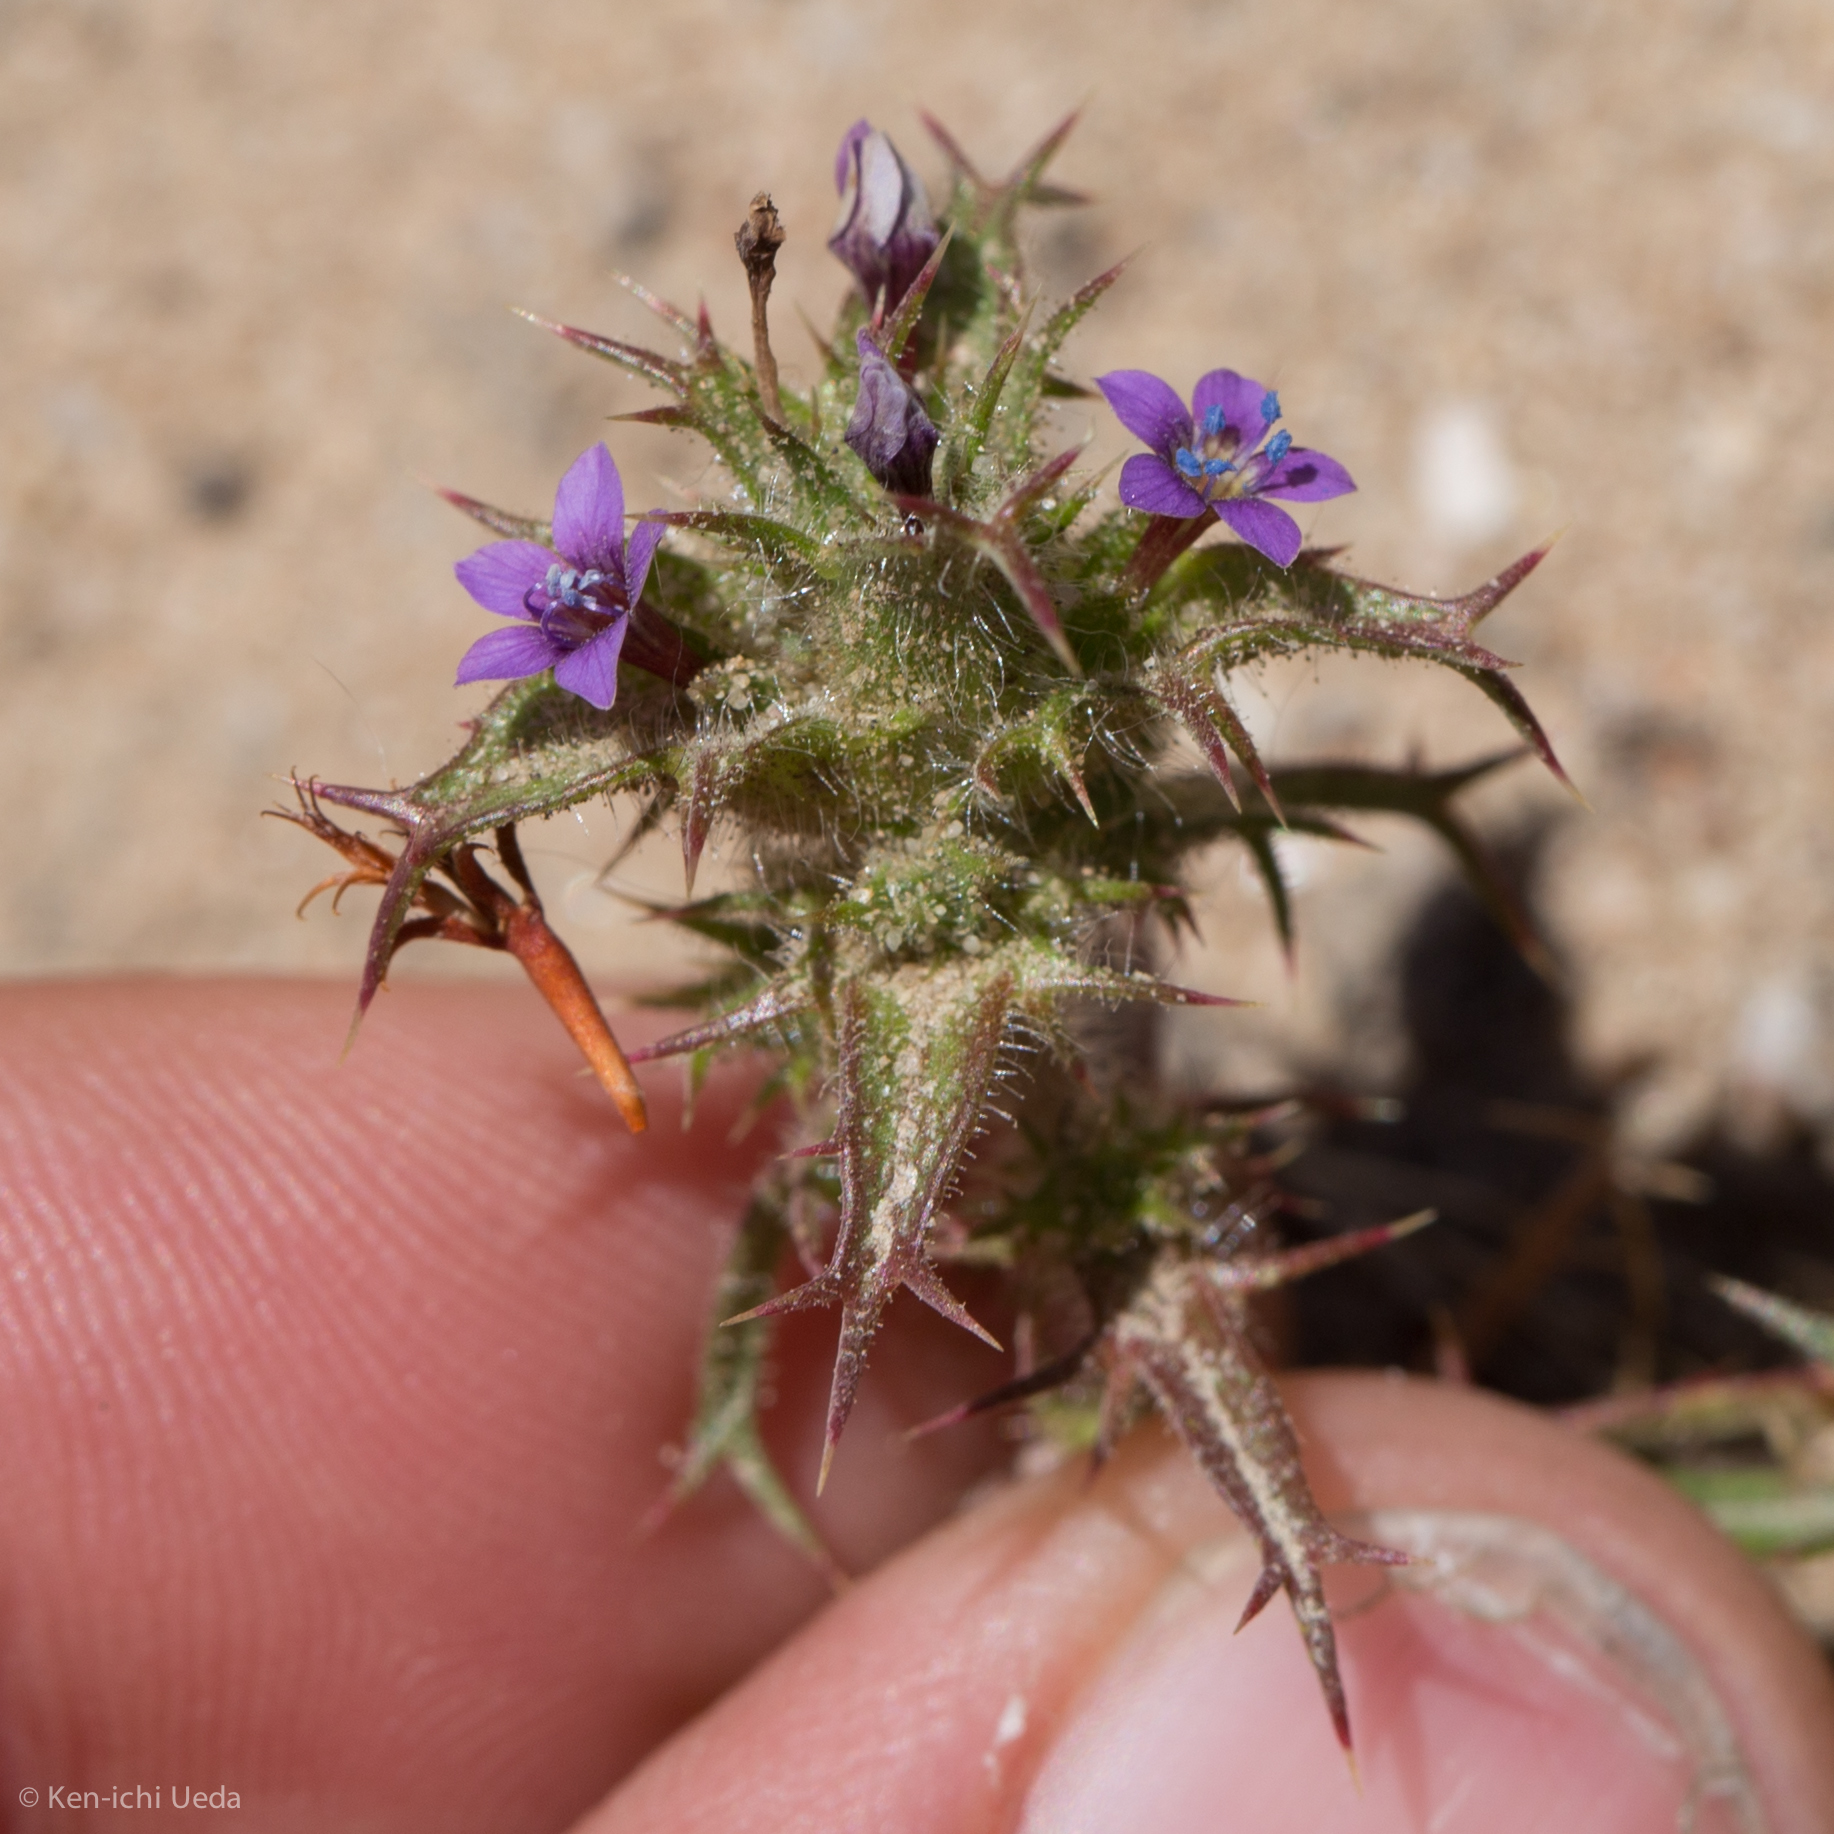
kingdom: Plantae
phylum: Tracheophyta
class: Magnoliopsida
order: Ericales
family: Polemoniaceae
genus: Navarretia
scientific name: Navarretia atractyloides
